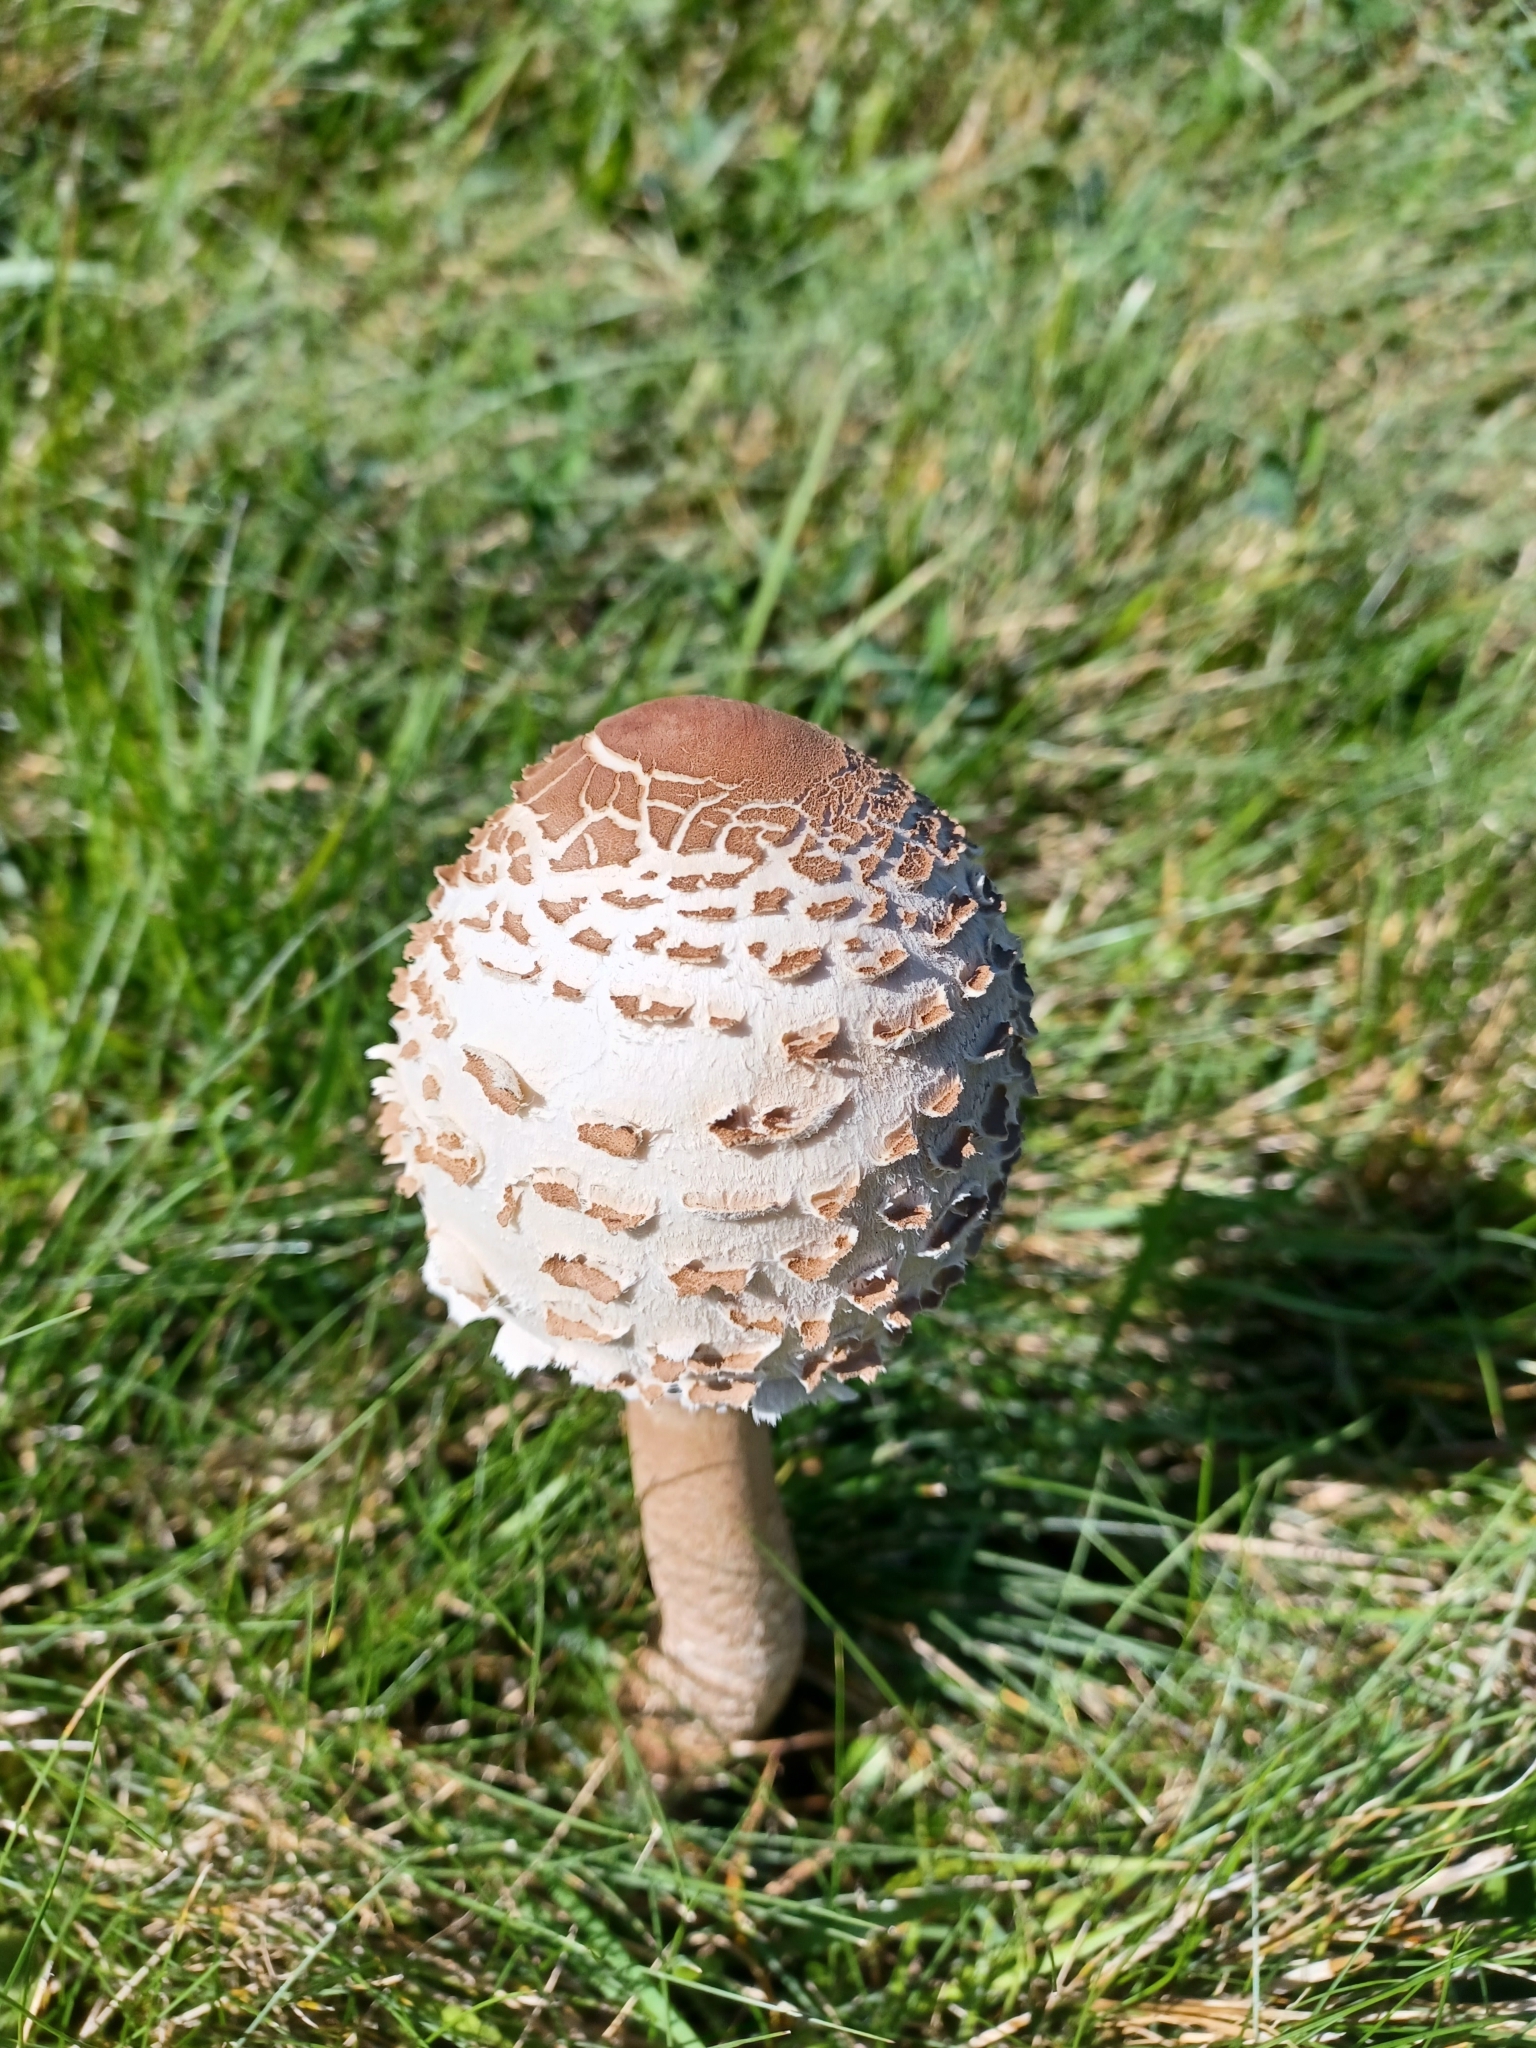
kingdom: Fungi
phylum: Basidiomycota
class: Agaricomycetes
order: Agaricales
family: Agaricaceae
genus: Macrolepiota
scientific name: Macrolepiota procera
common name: Parasol
